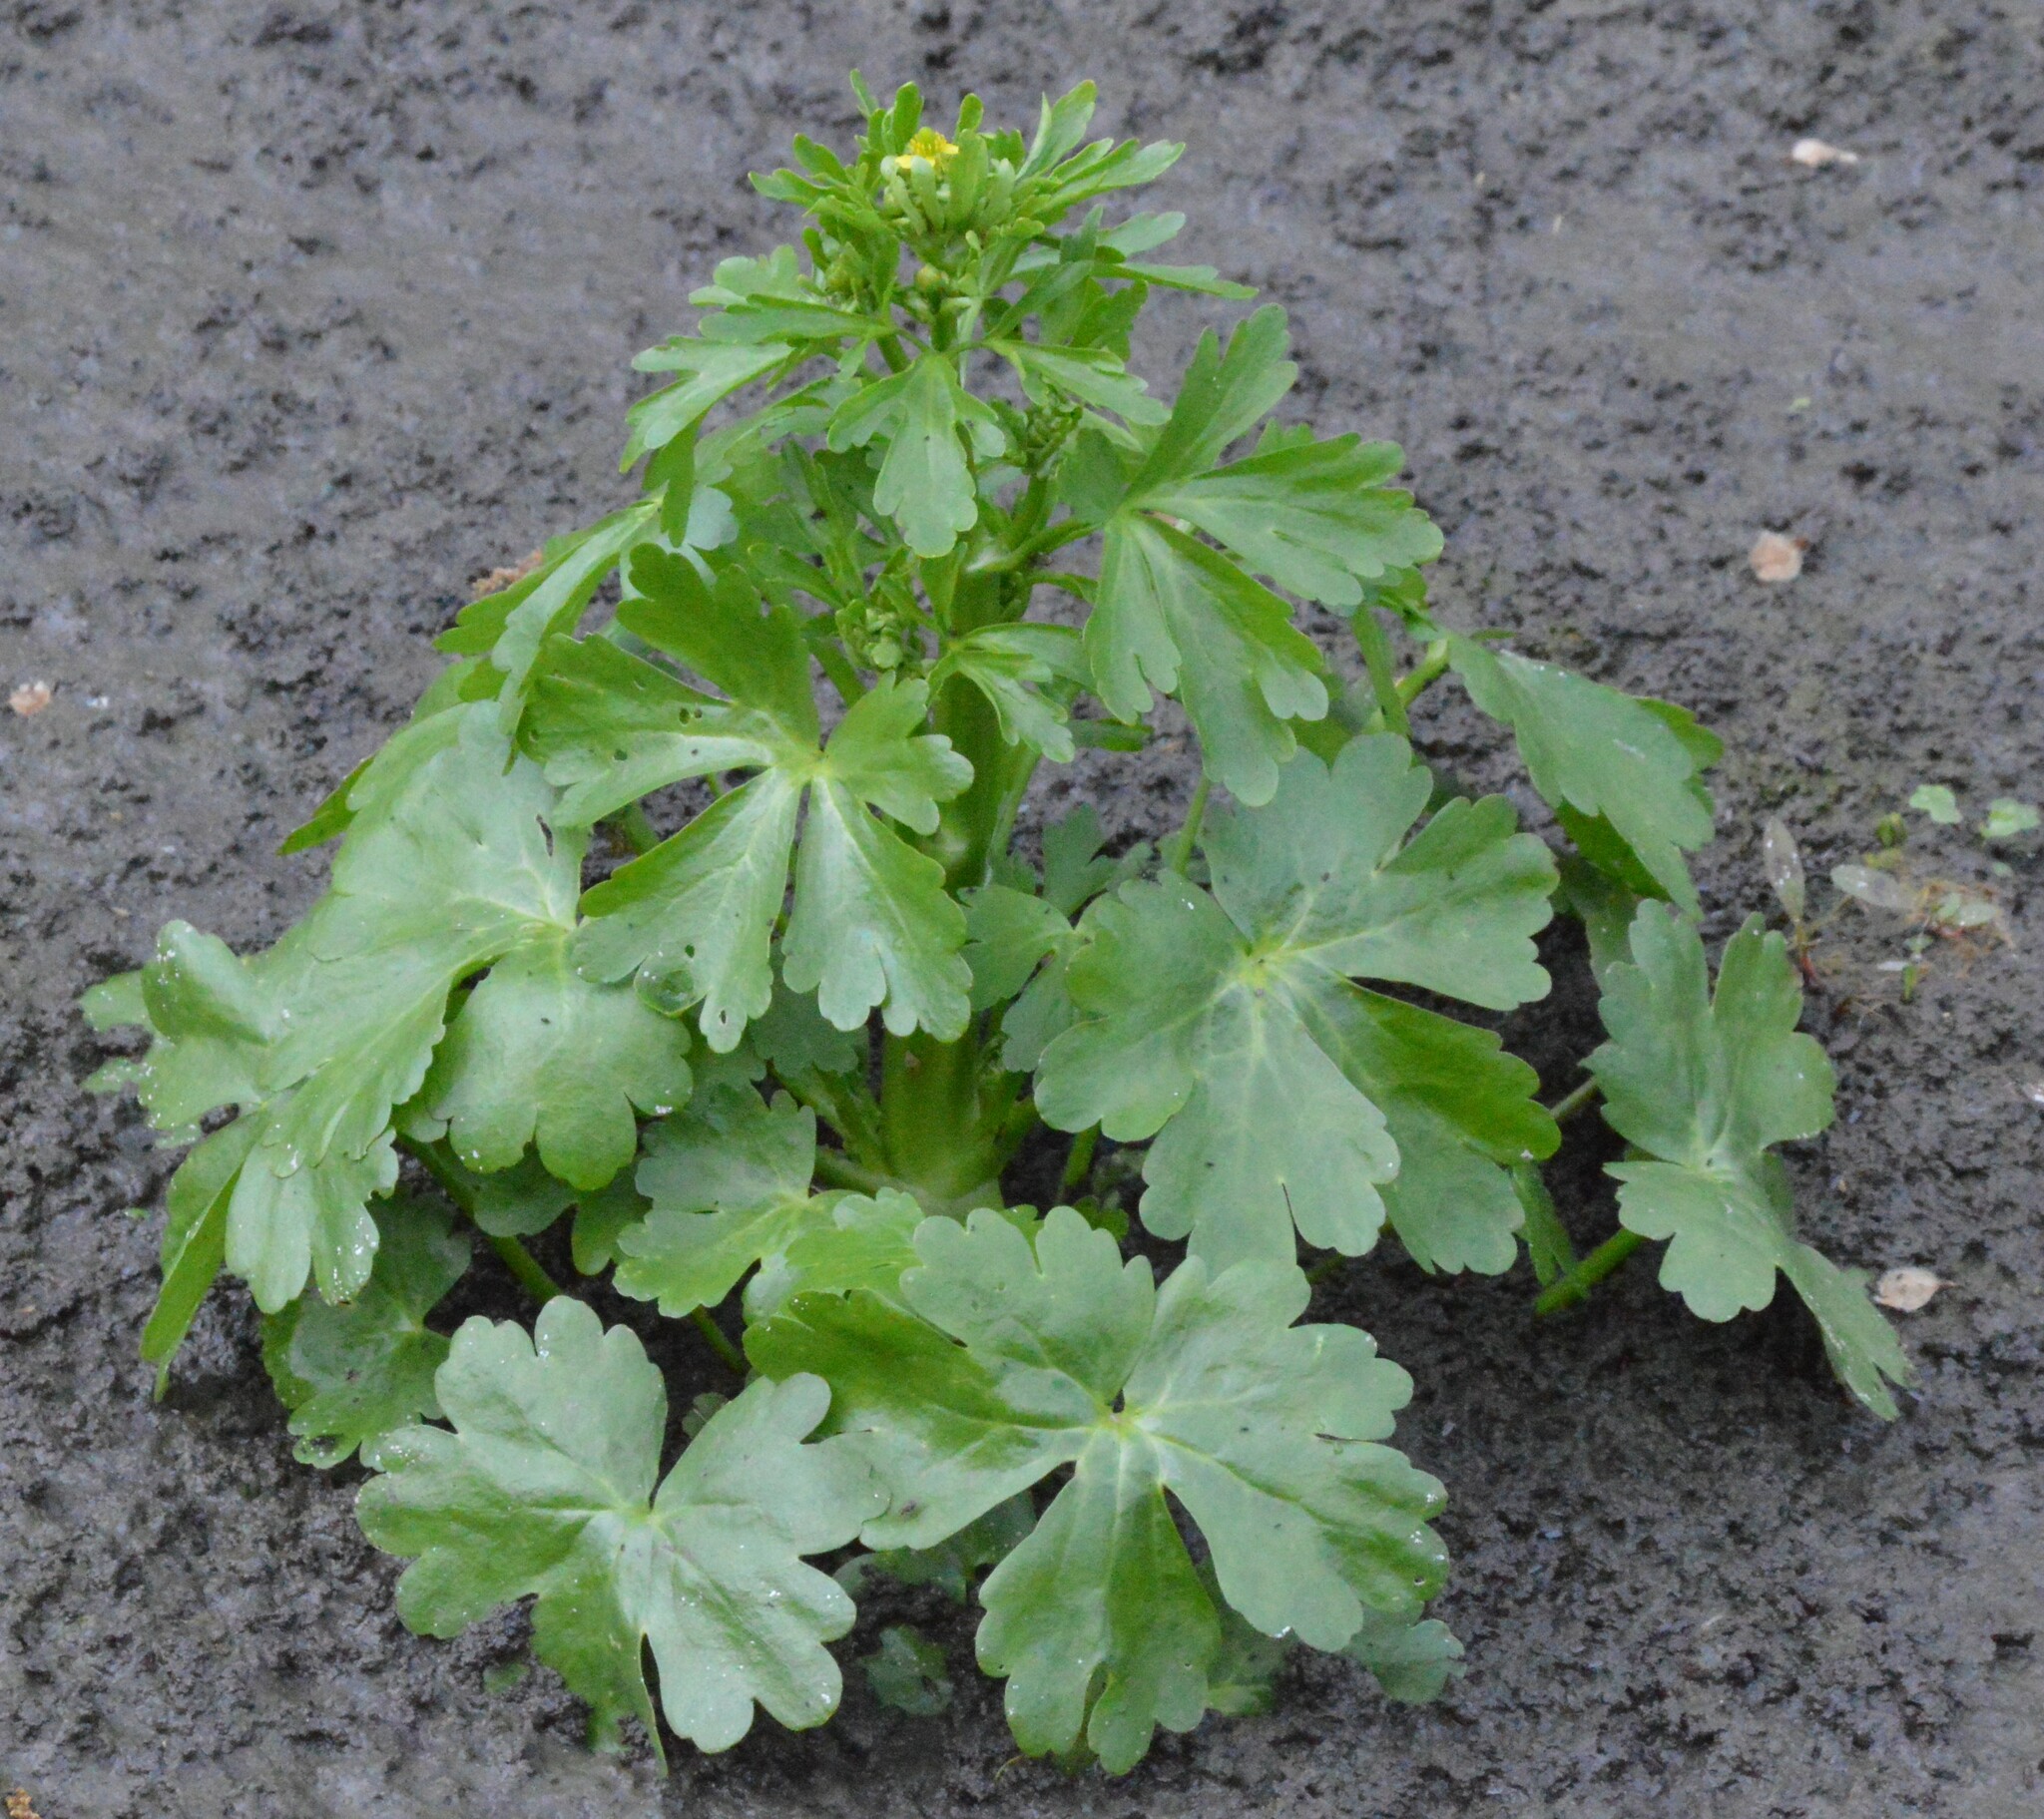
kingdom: Plantae
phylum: Tracheophyta
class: Magnoliopsida
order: Ranunculales
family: Ranunculaceae
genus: Ranunculus
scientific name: Ranunculus sceleratus
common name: Celery-leaved buttercup
